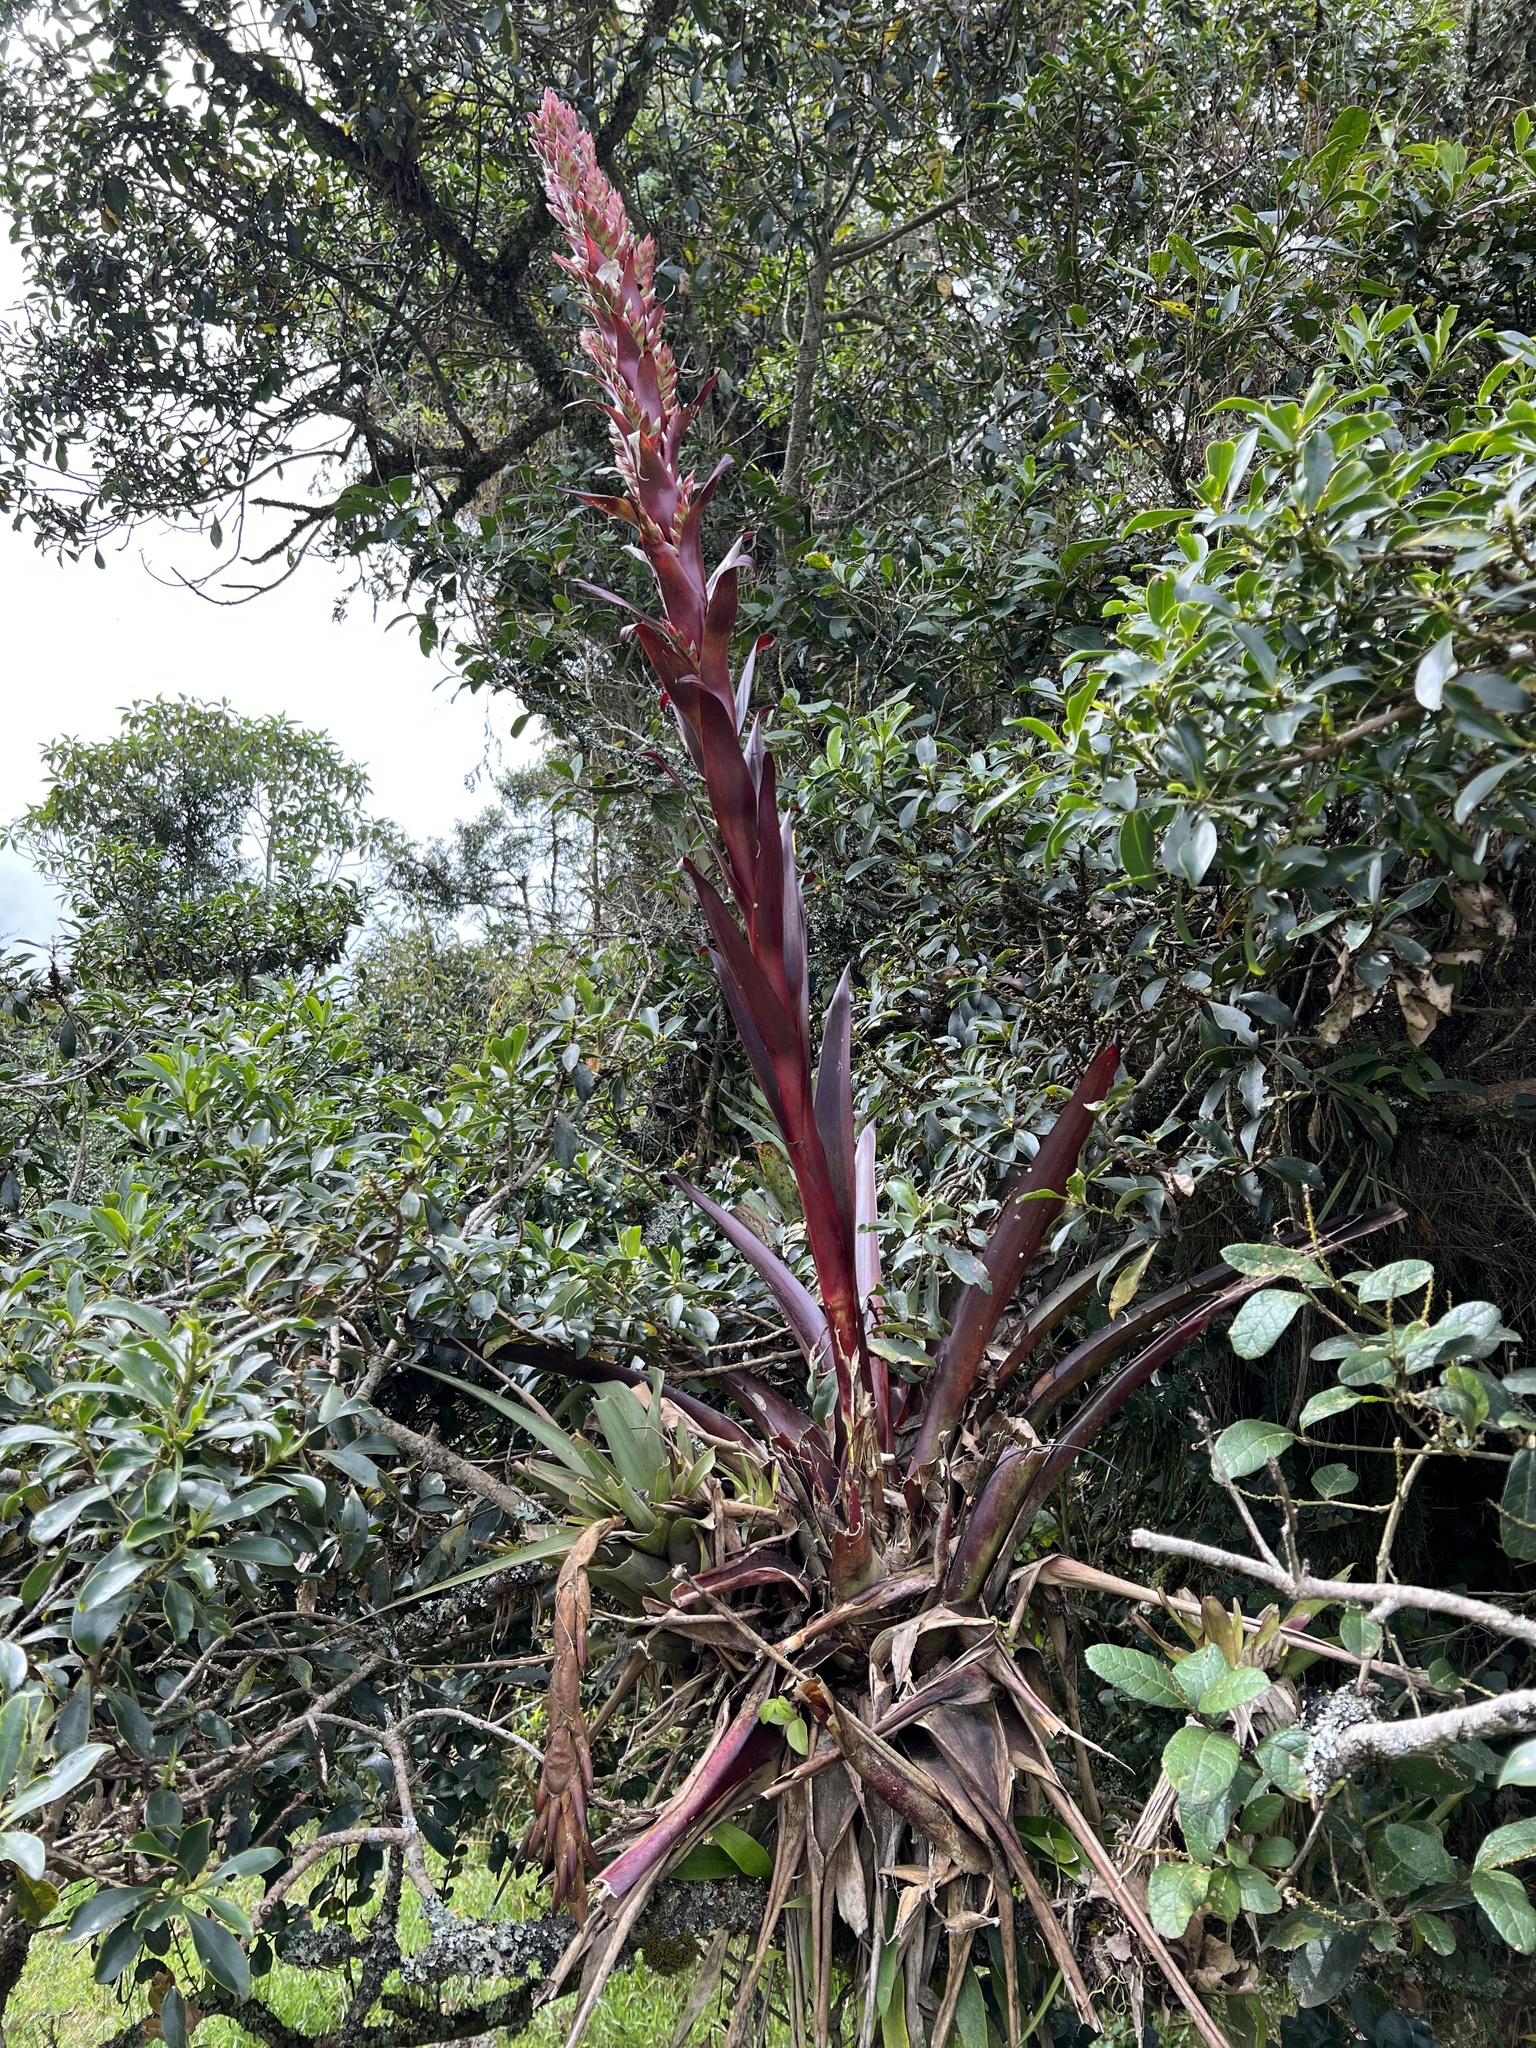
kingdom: Plantae
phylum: Tracheophyta
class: Liliopsida
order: Poales
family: Bromeliaceae
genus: Tillandsia
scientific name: Tillandsia pastensis
